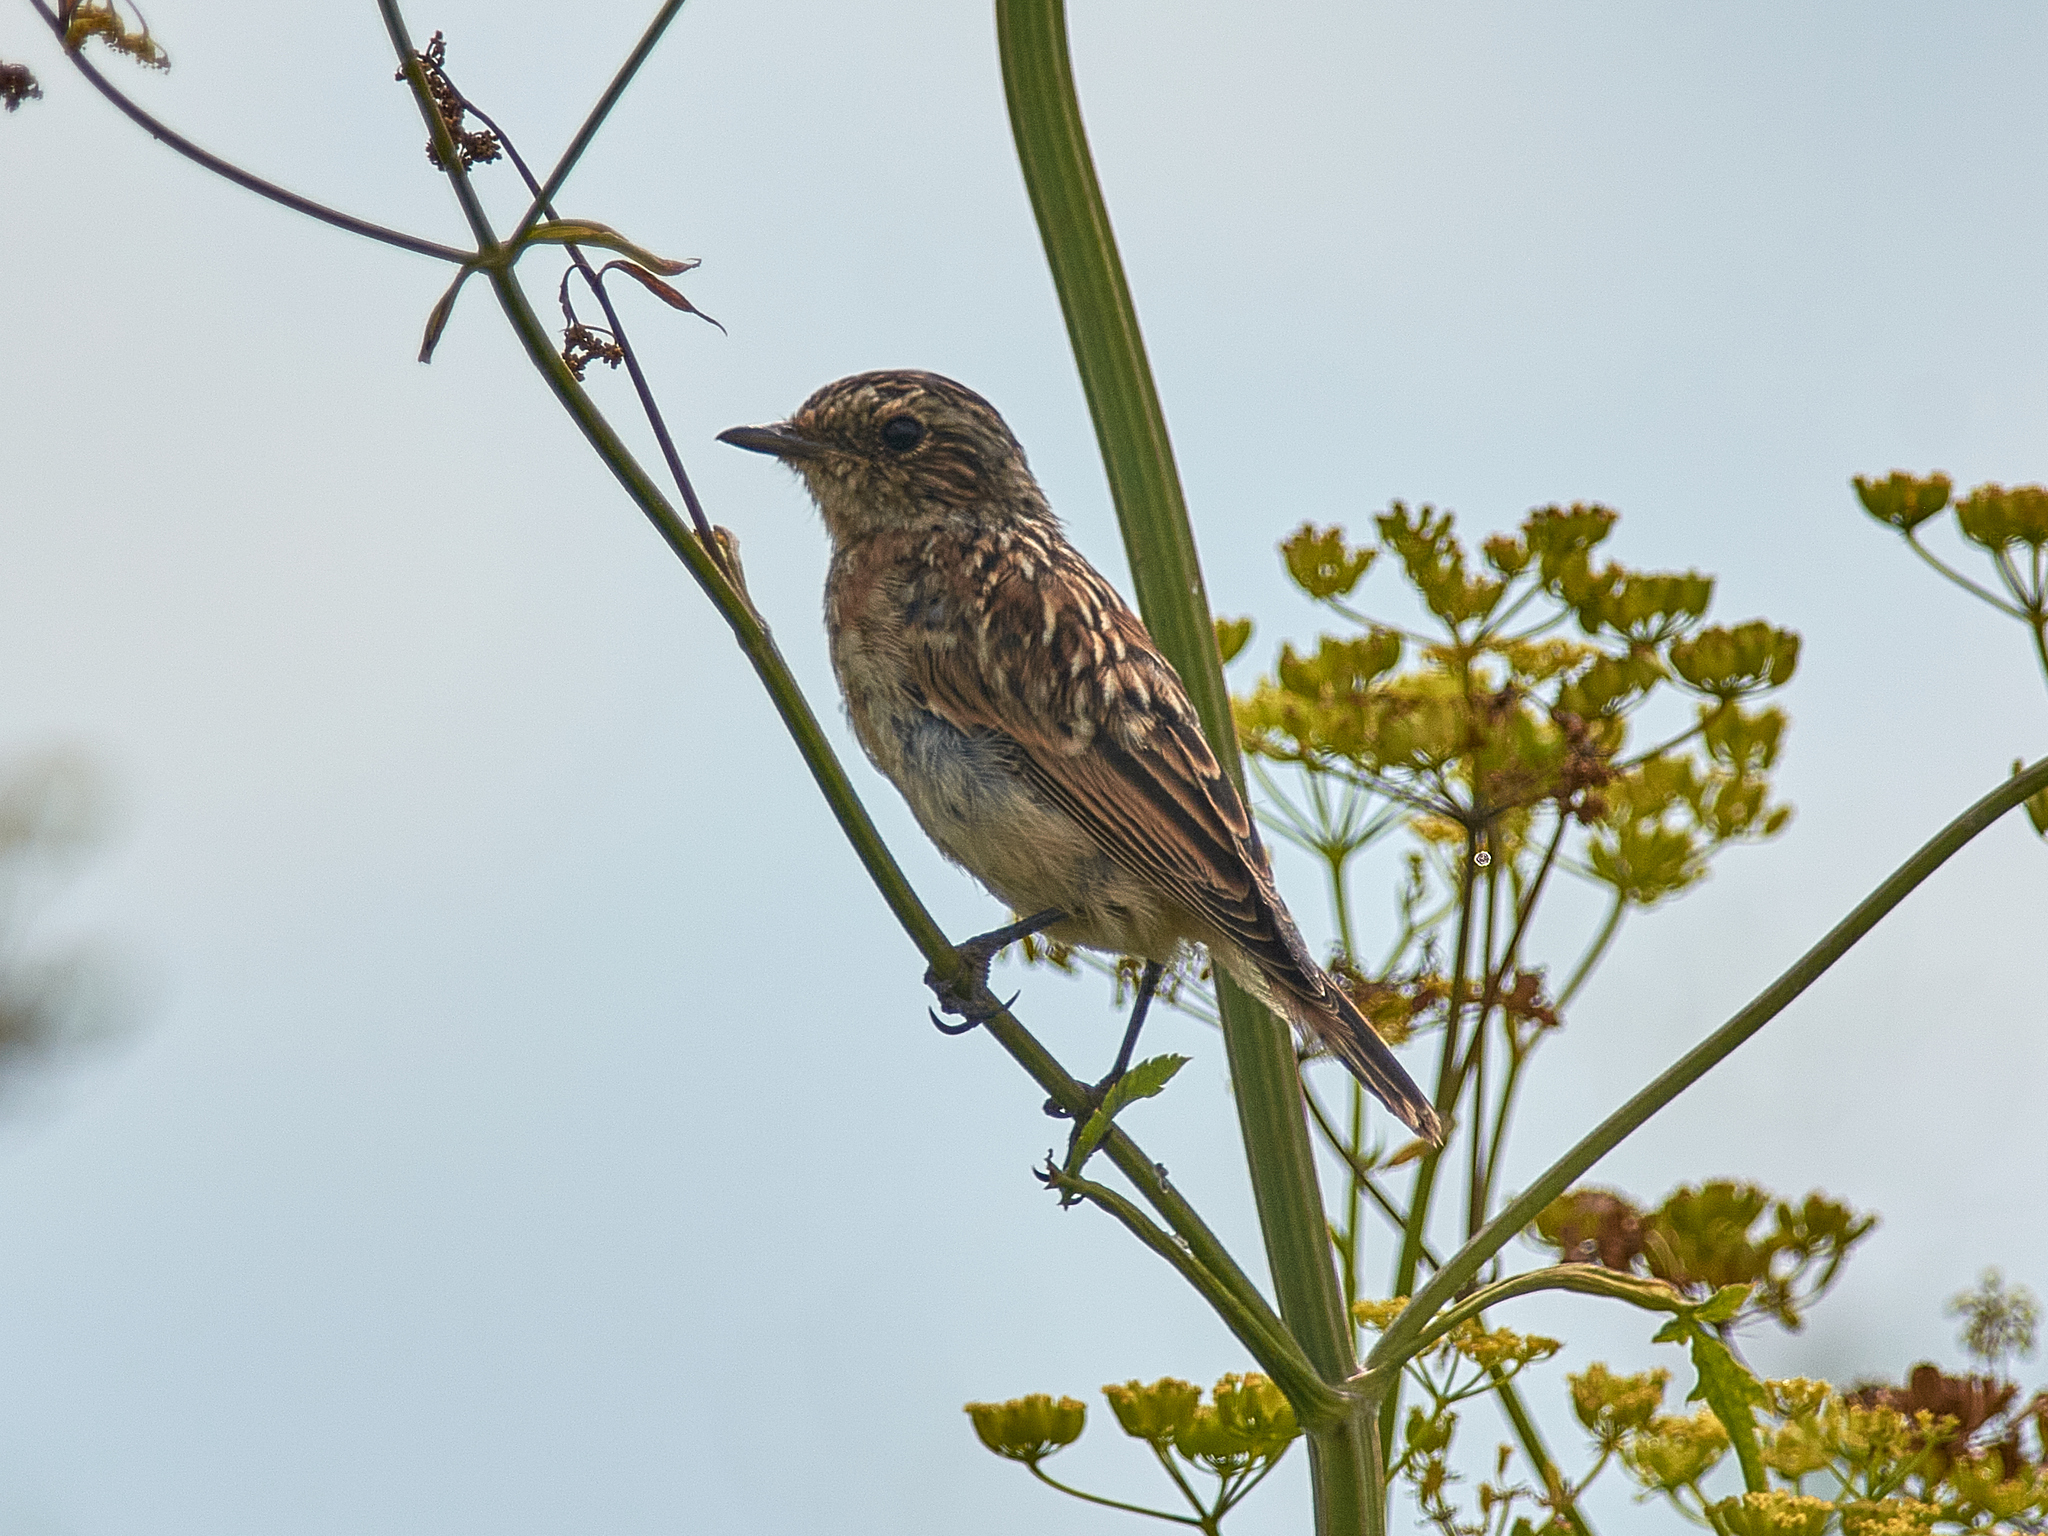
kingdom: Animalia
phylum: Chordata
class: Aves
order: Passeriformes
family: Muscicapidae
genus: Saxicola
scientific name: Saxicola rubetra
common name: Whinchat
